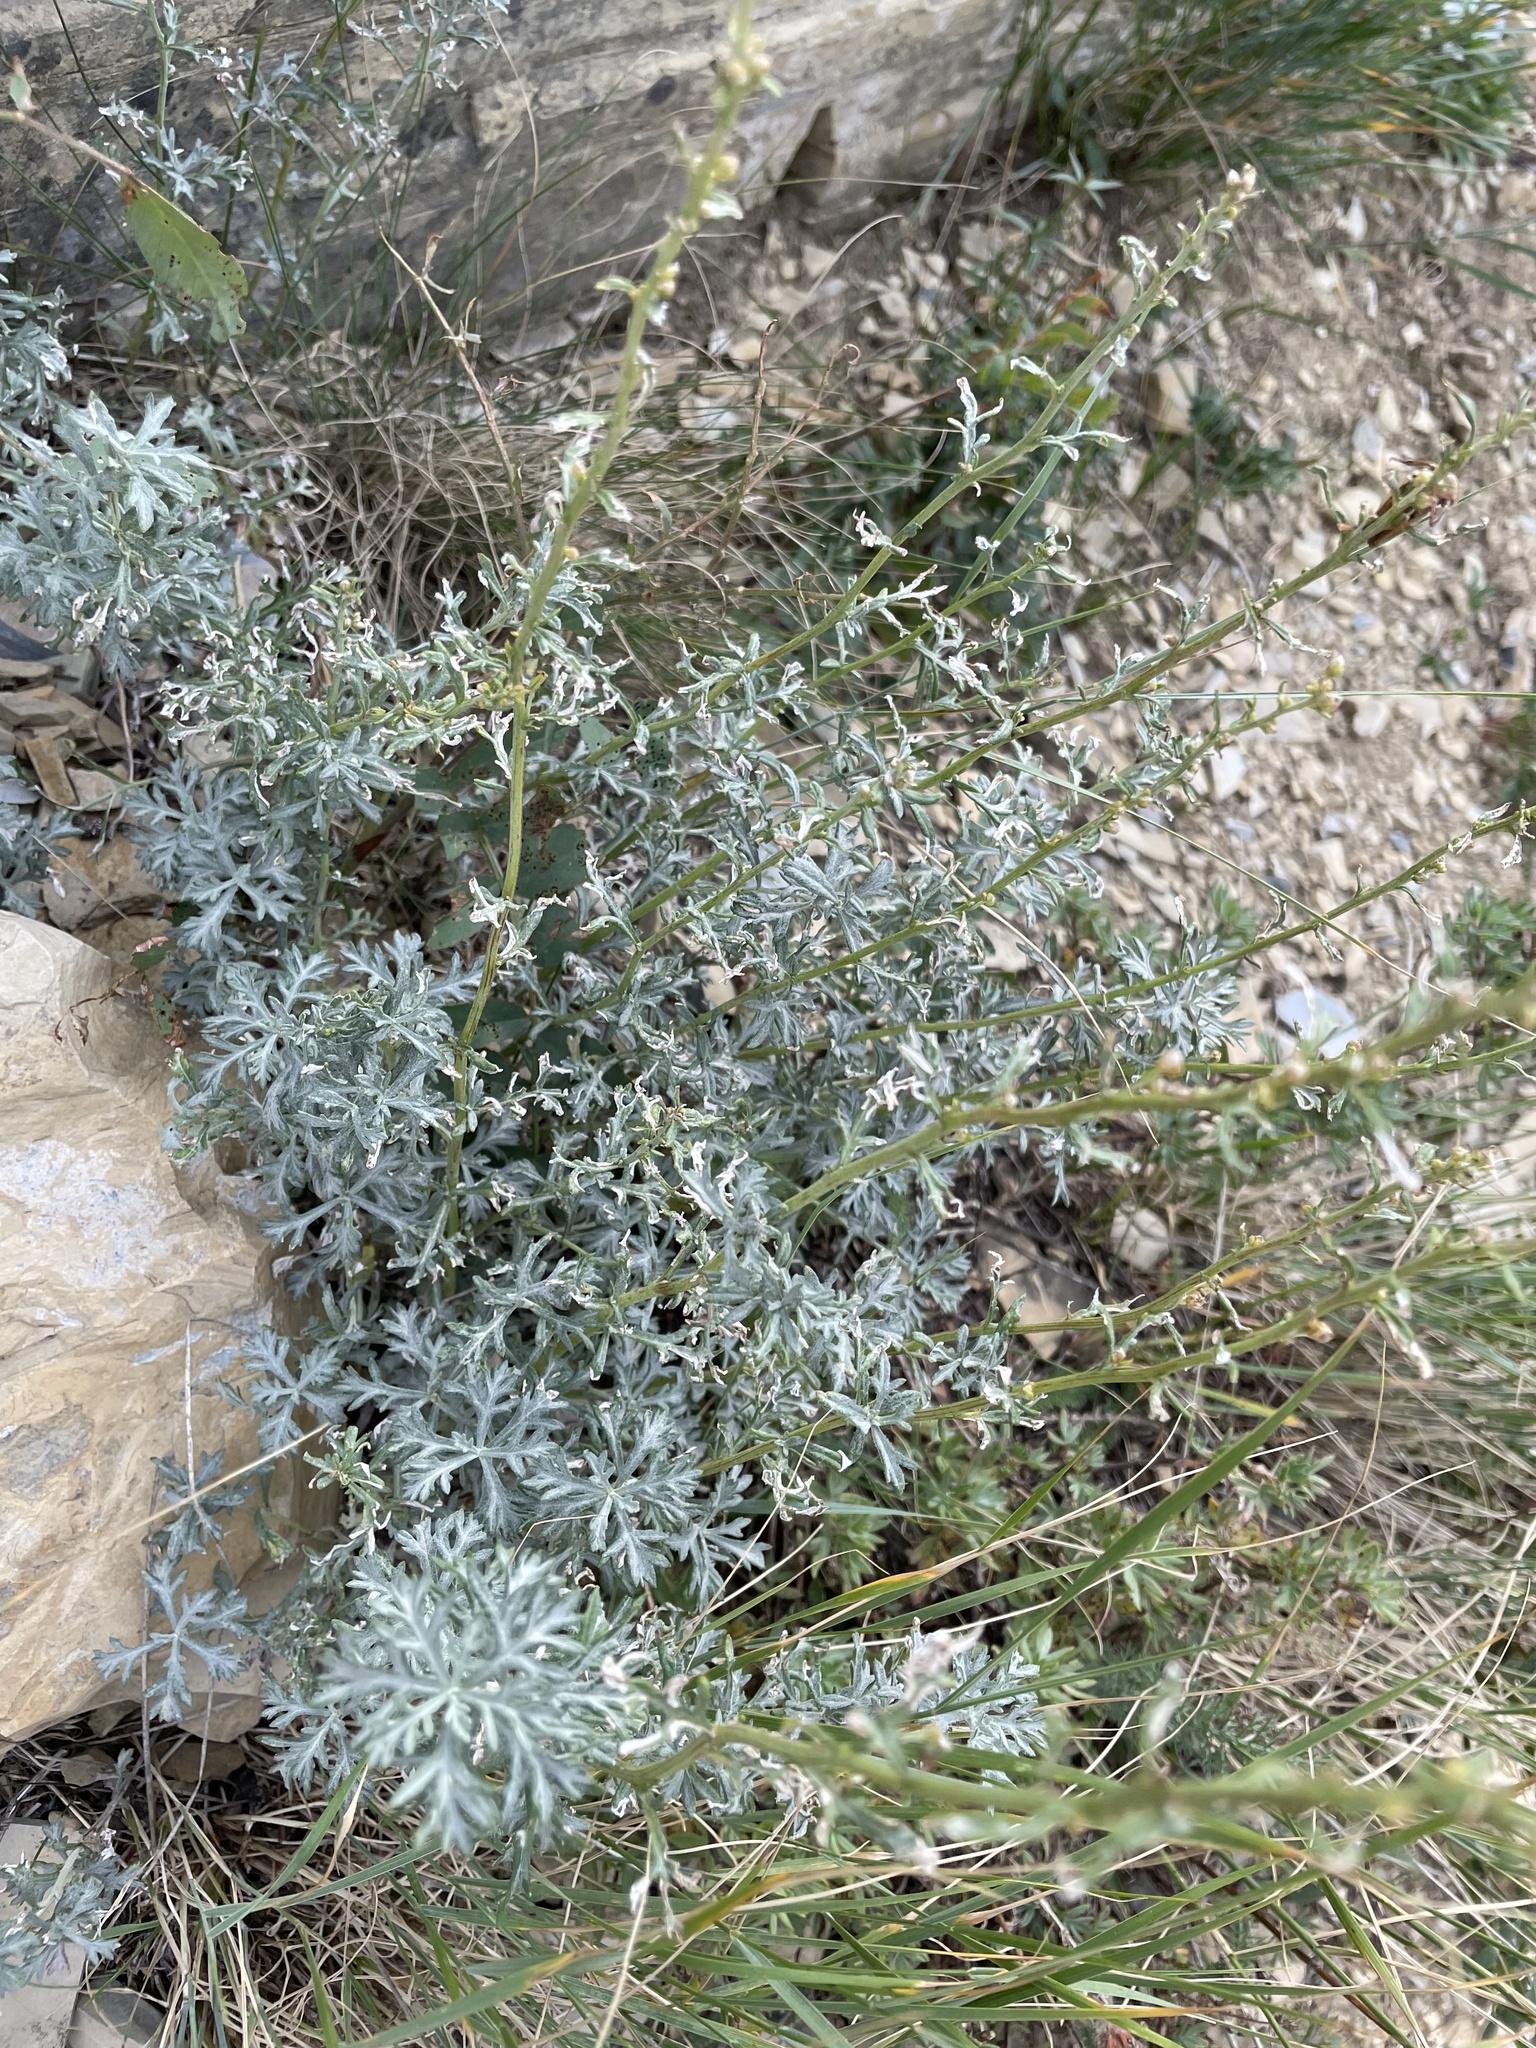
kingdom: Plantae
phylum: Tracheophyta
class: Magnoliopsida
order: Asterales
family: Asteraceae
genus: Artemisia
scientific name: Artemisia michauxiana
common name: Lemon sagewort
